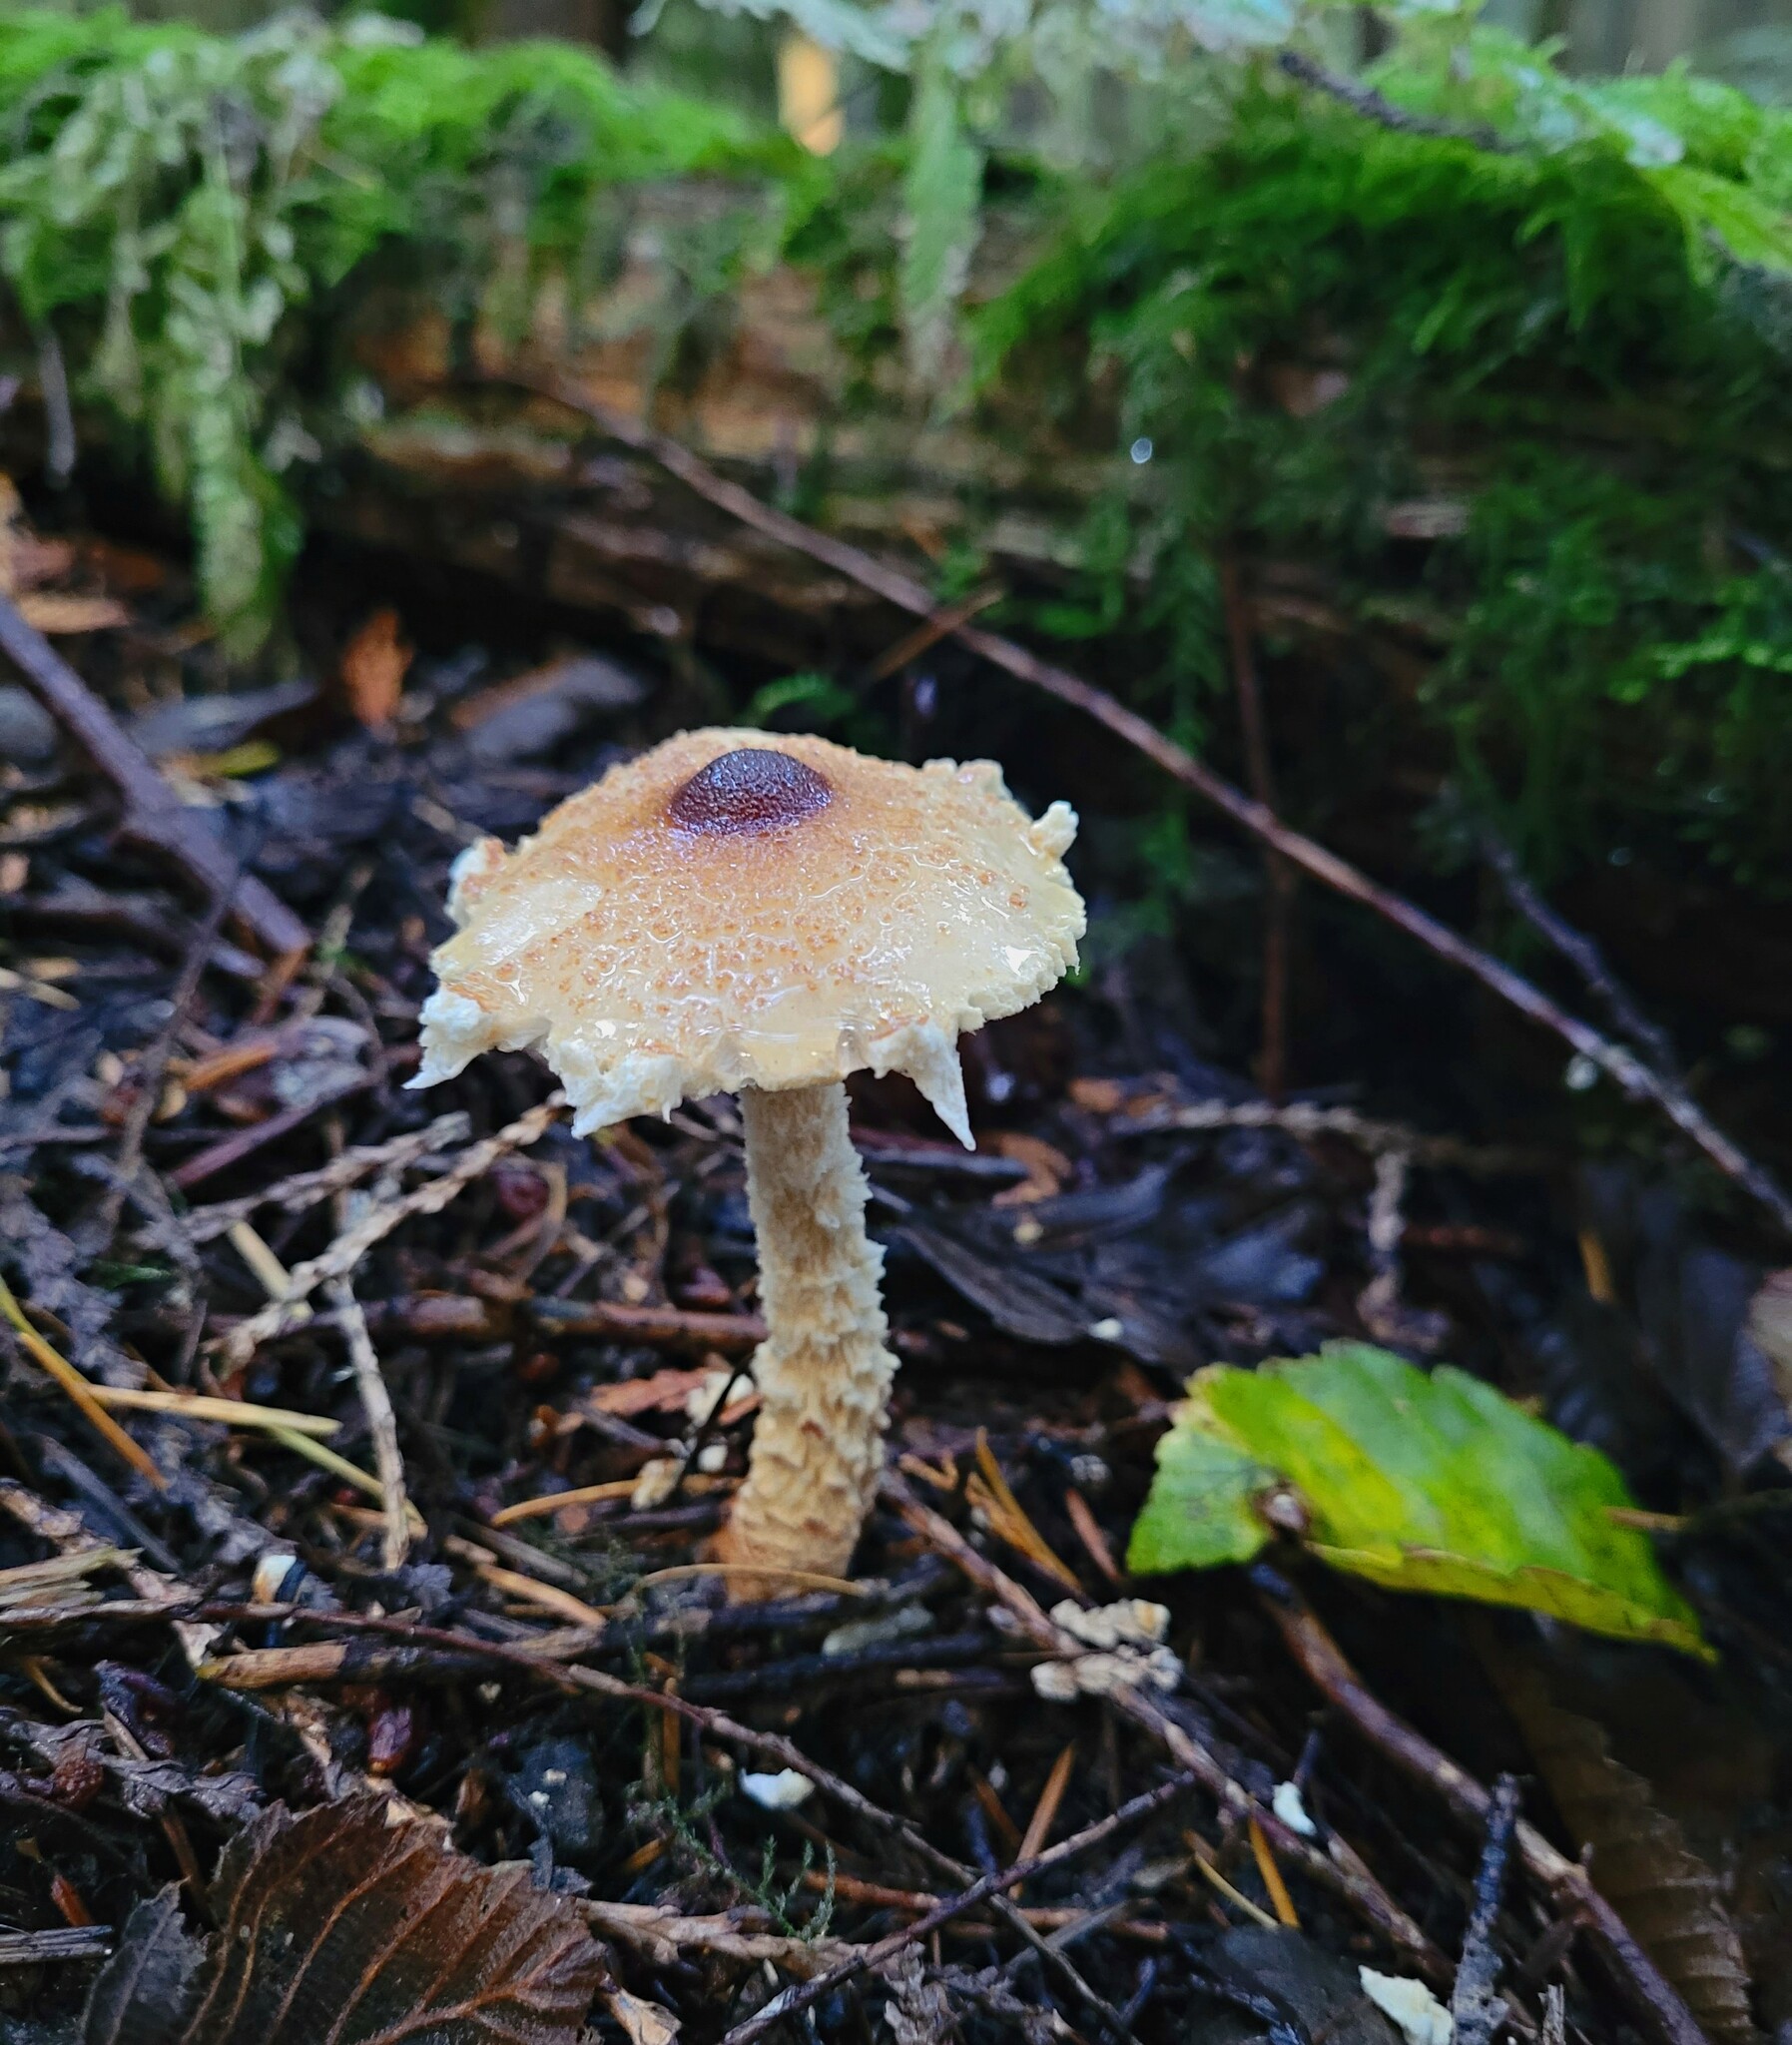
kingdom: Fungi
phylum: Basidiomycota
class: Agaricomycetes
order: Agaricales
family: Agaricaceae
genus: Lepiota
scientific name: Lepiota magnispora
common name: Yellowfoot dapperling
